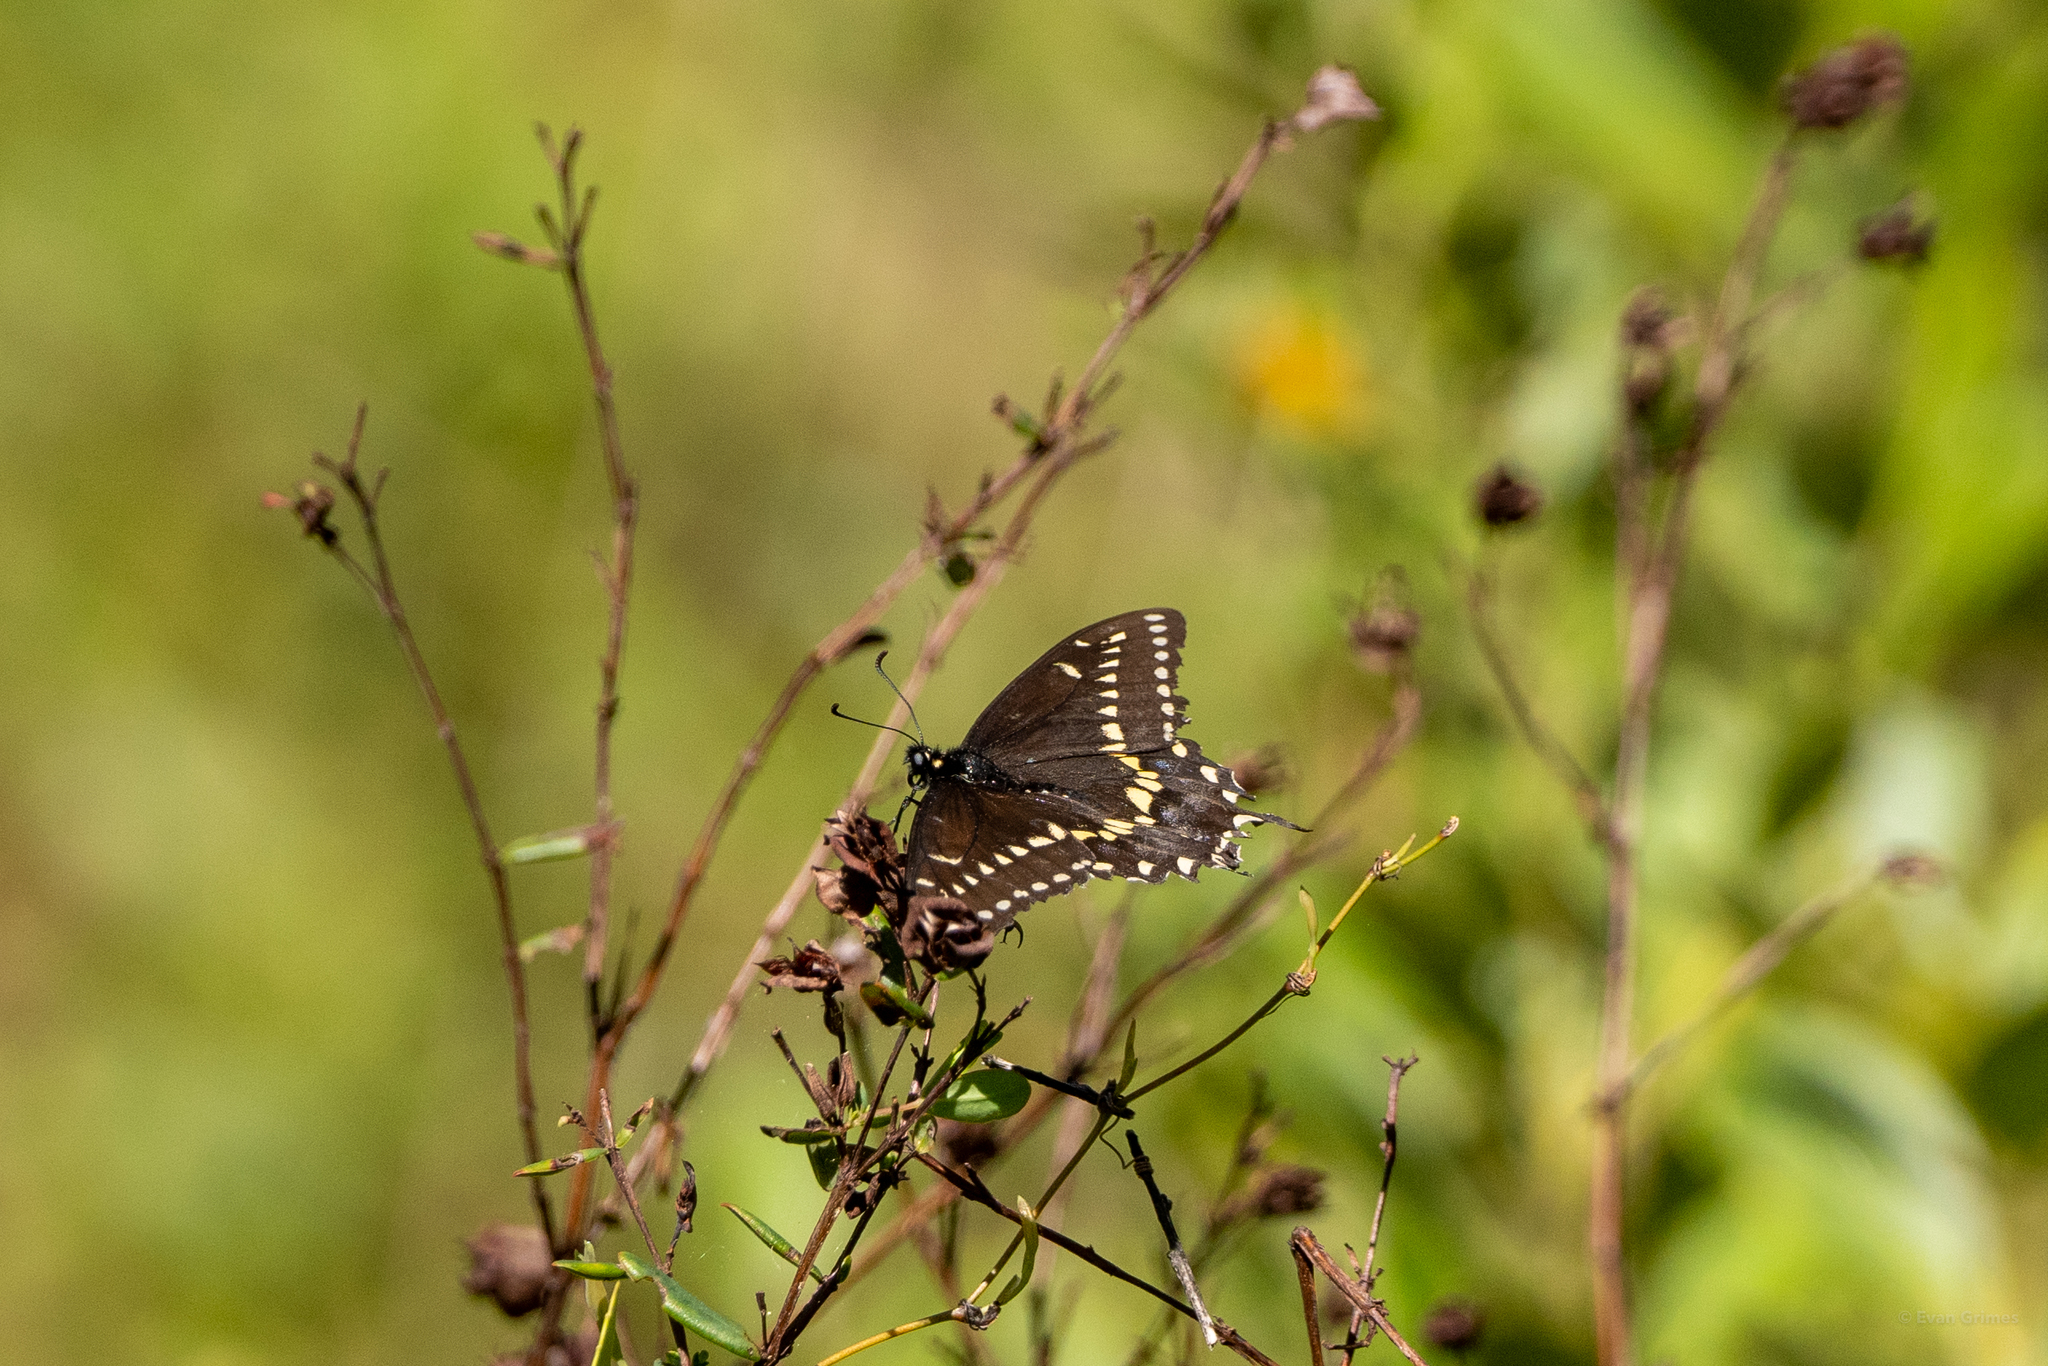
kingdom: Animalia
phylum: Arthropoda
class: Insecta
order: Lepidoptera
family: Papilionidae
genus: Papilio
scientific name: Papilio polyxenes
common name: Black swallowtail
